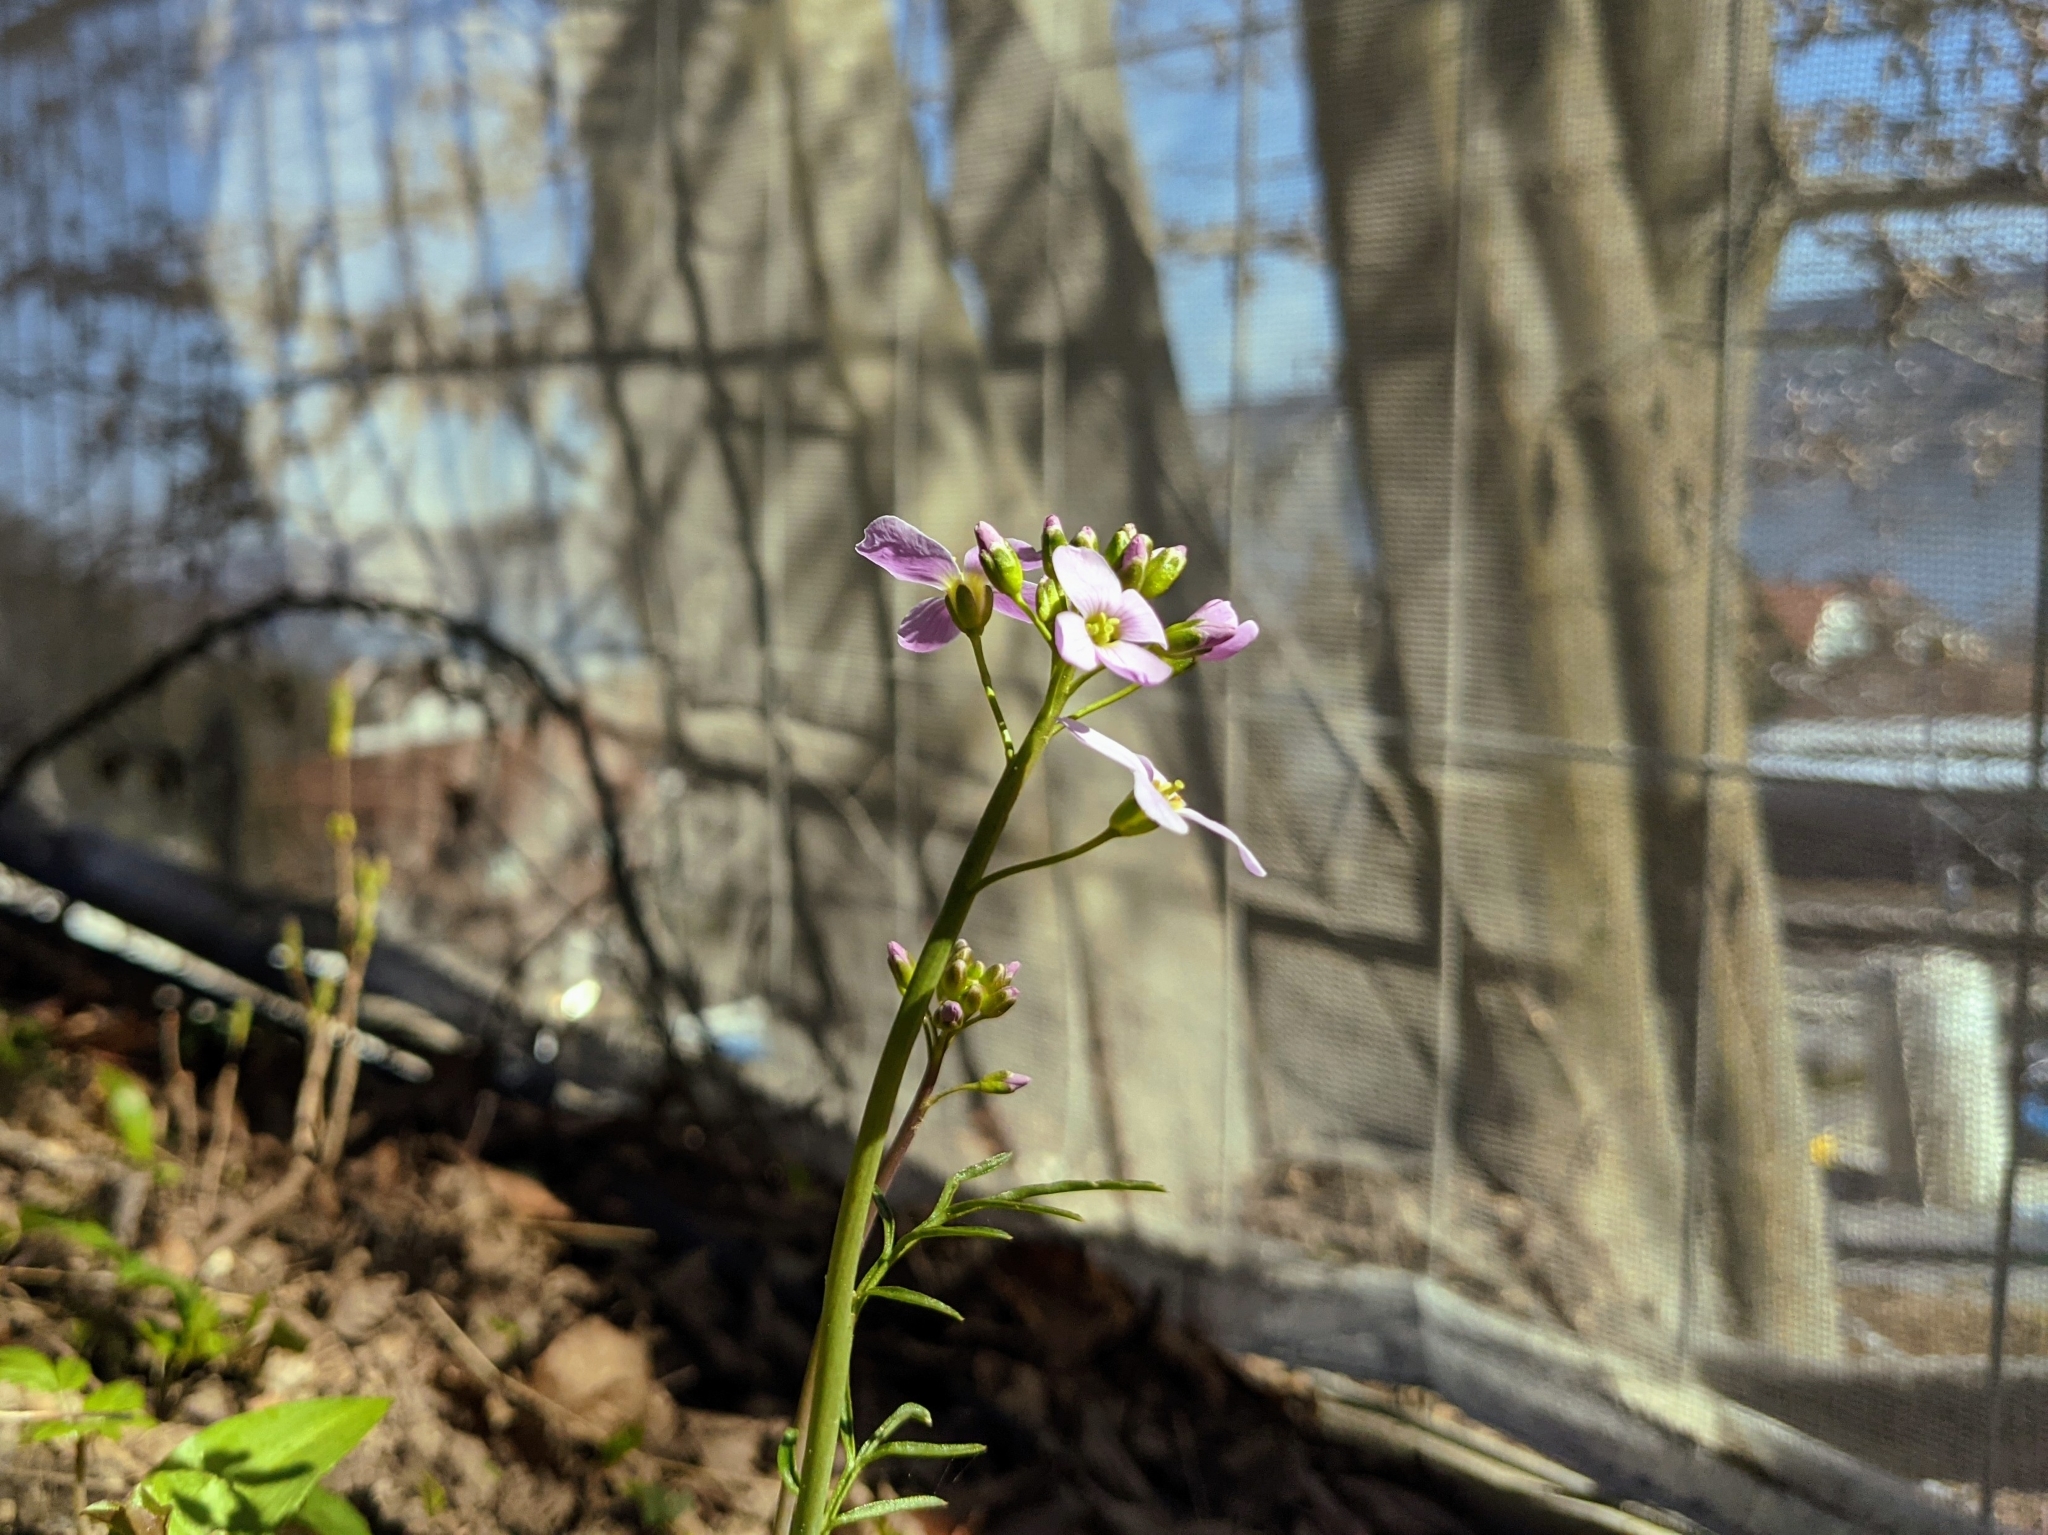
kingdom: Plantae
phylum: Tracheophyta
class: Magnoliopsida
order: Brassicales
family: Brassicaceae
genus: Cardamine
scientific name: Cardamine pratensis
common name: Cuckoo flower
